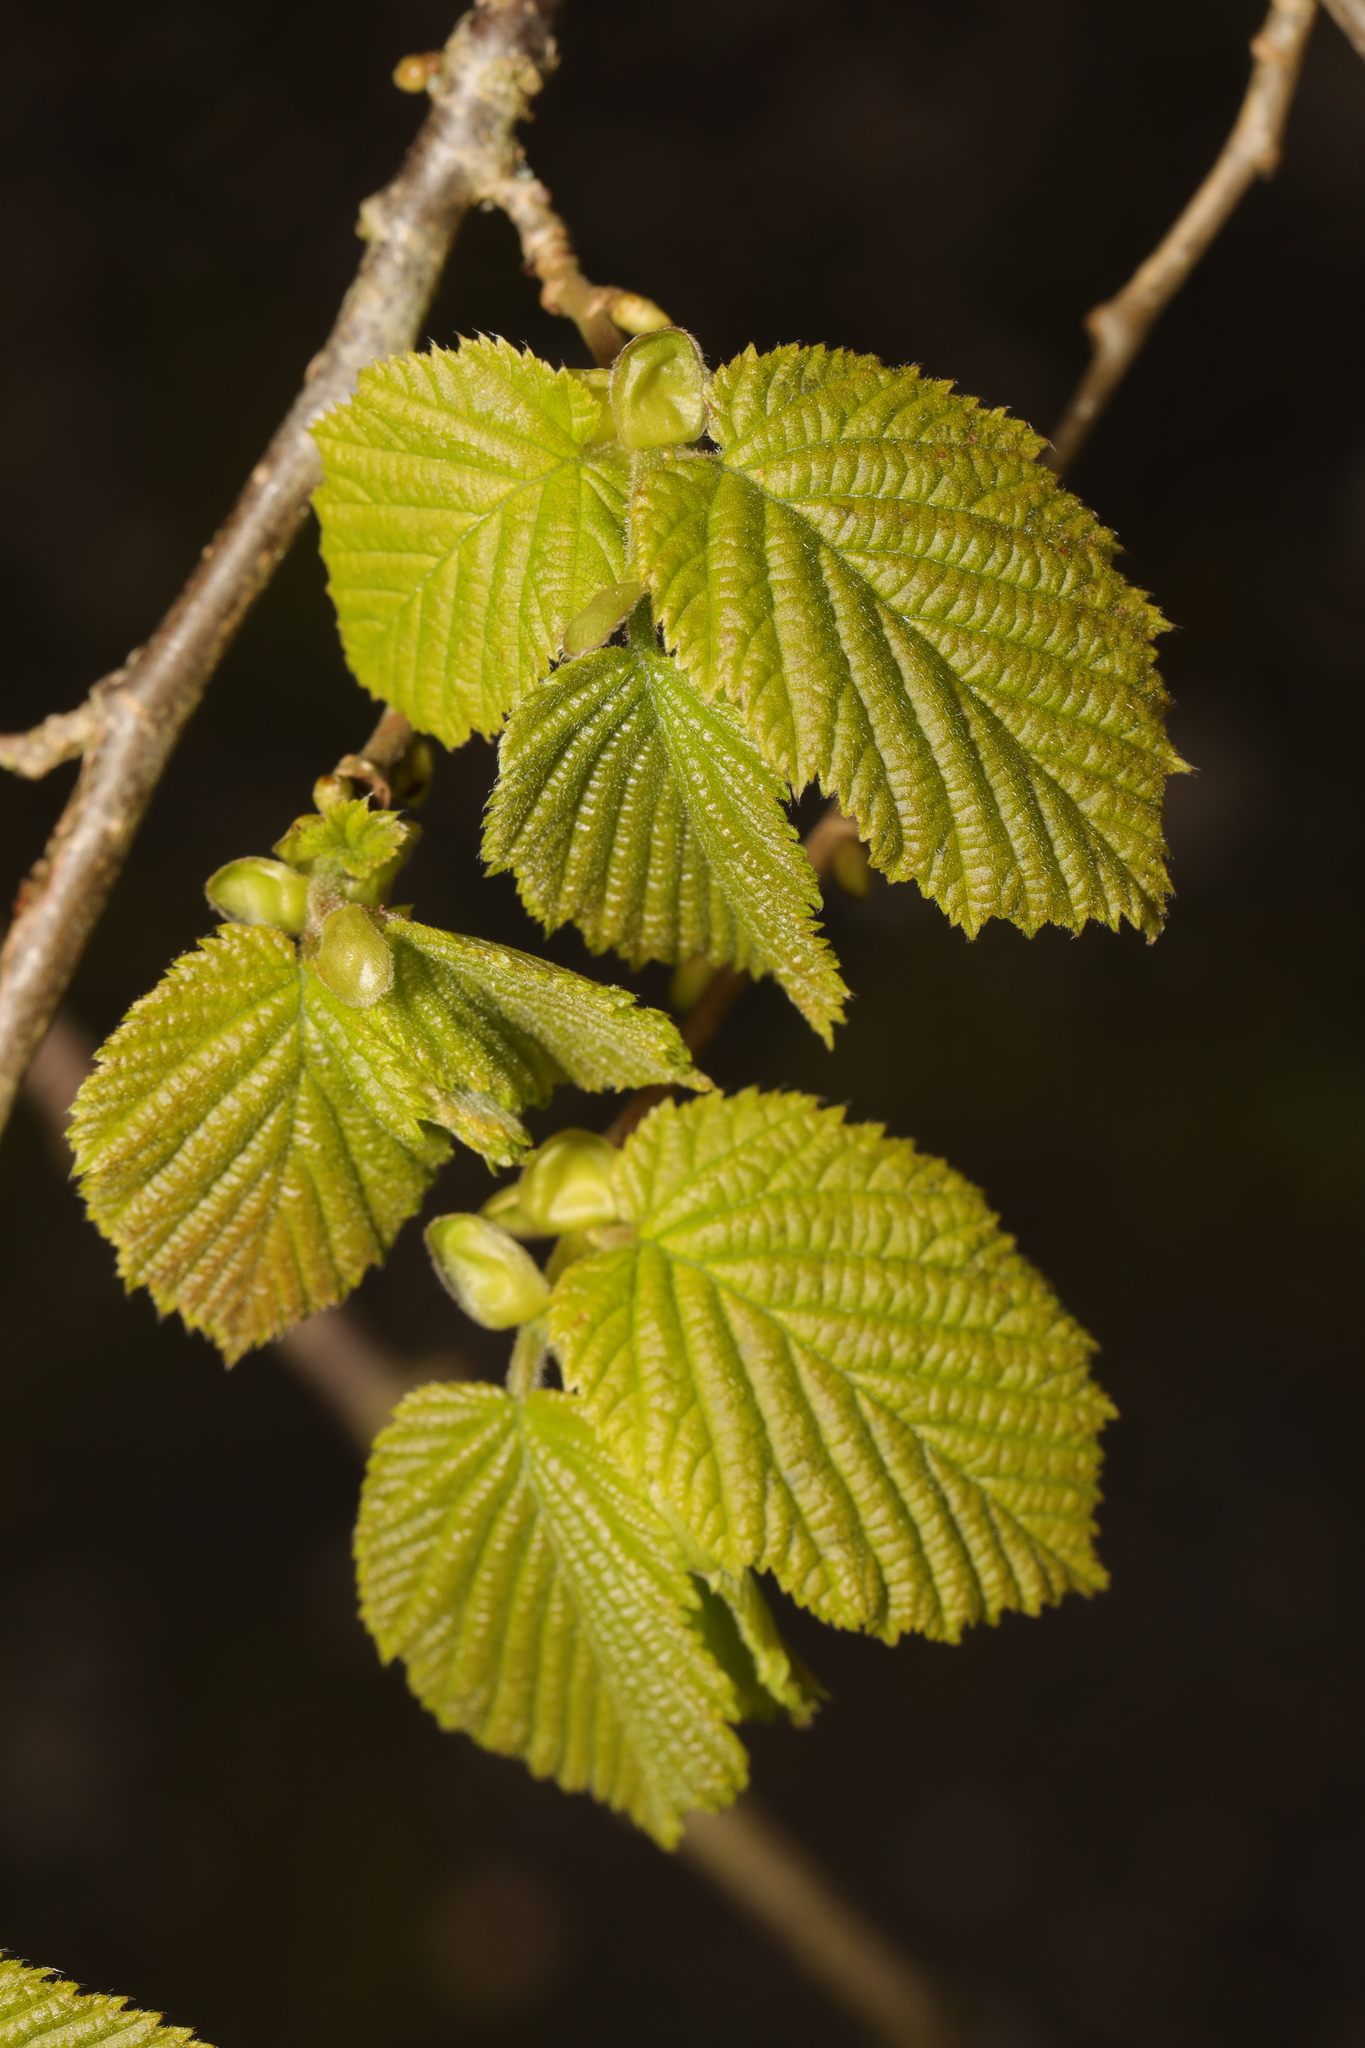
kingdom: Plantae
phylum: Tracheophyta
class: Magnoliopsida
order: Fagales
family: Betulaceae
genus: Corylus
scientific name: Corylus avellana
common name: European hazel
